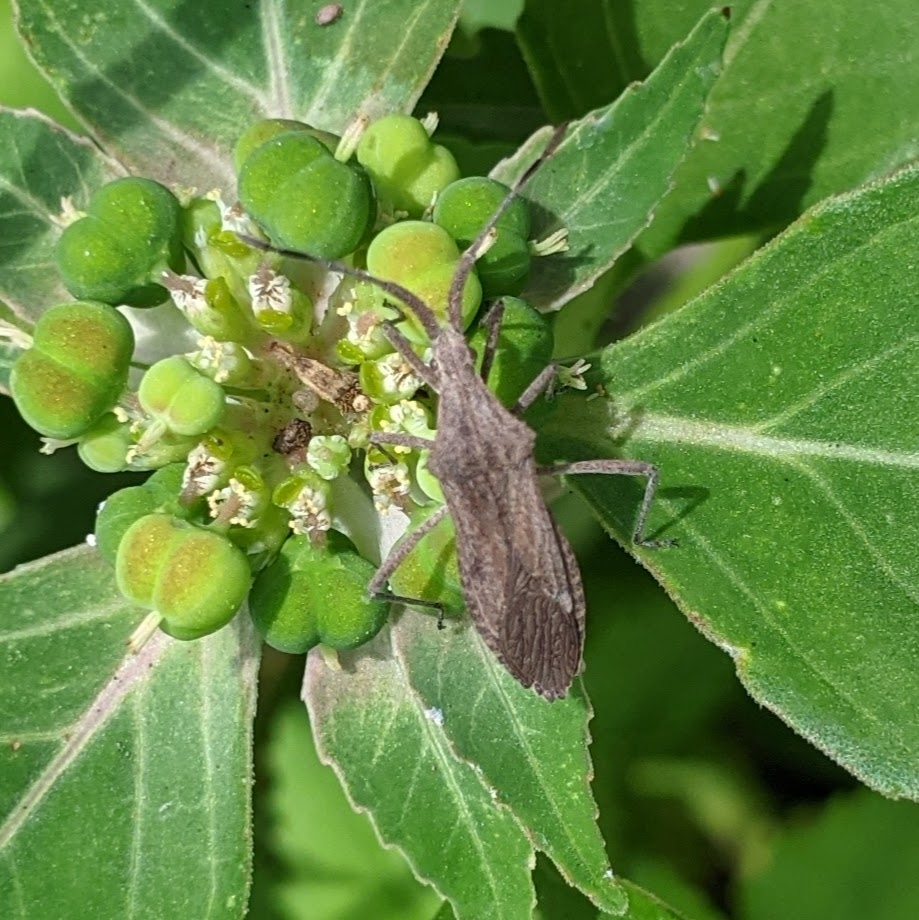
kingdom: Animalia
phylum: Arthropoda
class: Insecta
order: Hemiptera
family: Coreidae
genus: Chariesterus
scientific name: Chariesterus antennator
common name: Flat horned coreid
